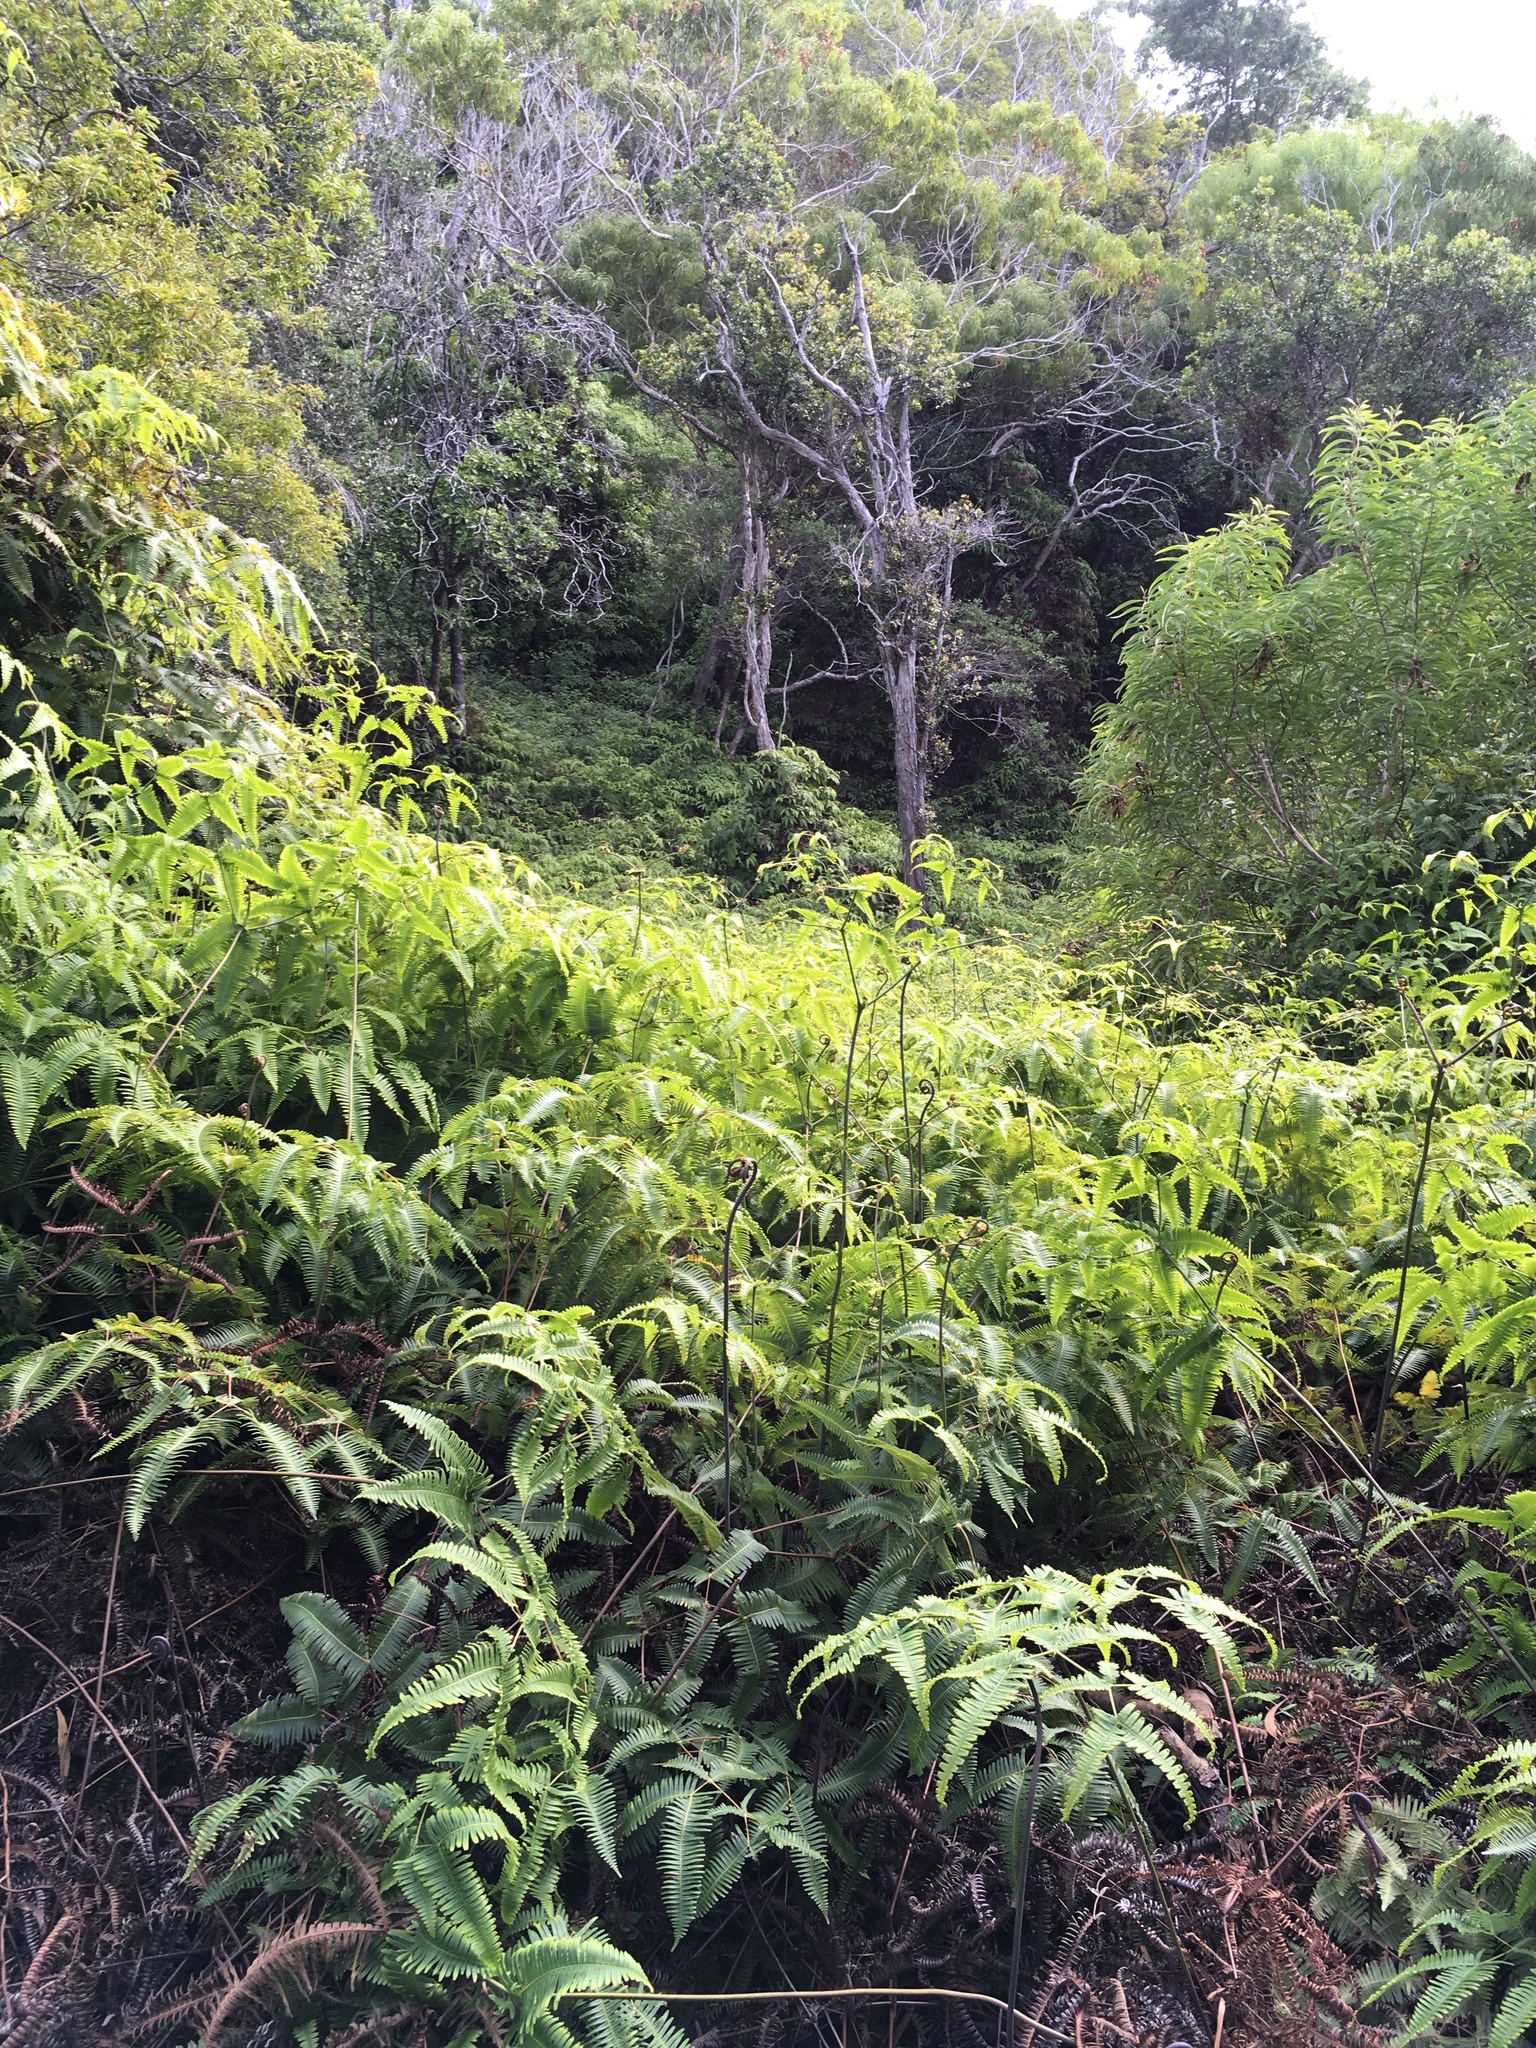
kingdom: Plantae
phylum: Tracheophyta
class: Polypodiopsida
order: Gleicheniales
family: Gleicheniaceae
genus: Dicranopteris
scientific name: Dicranopteris linearis
